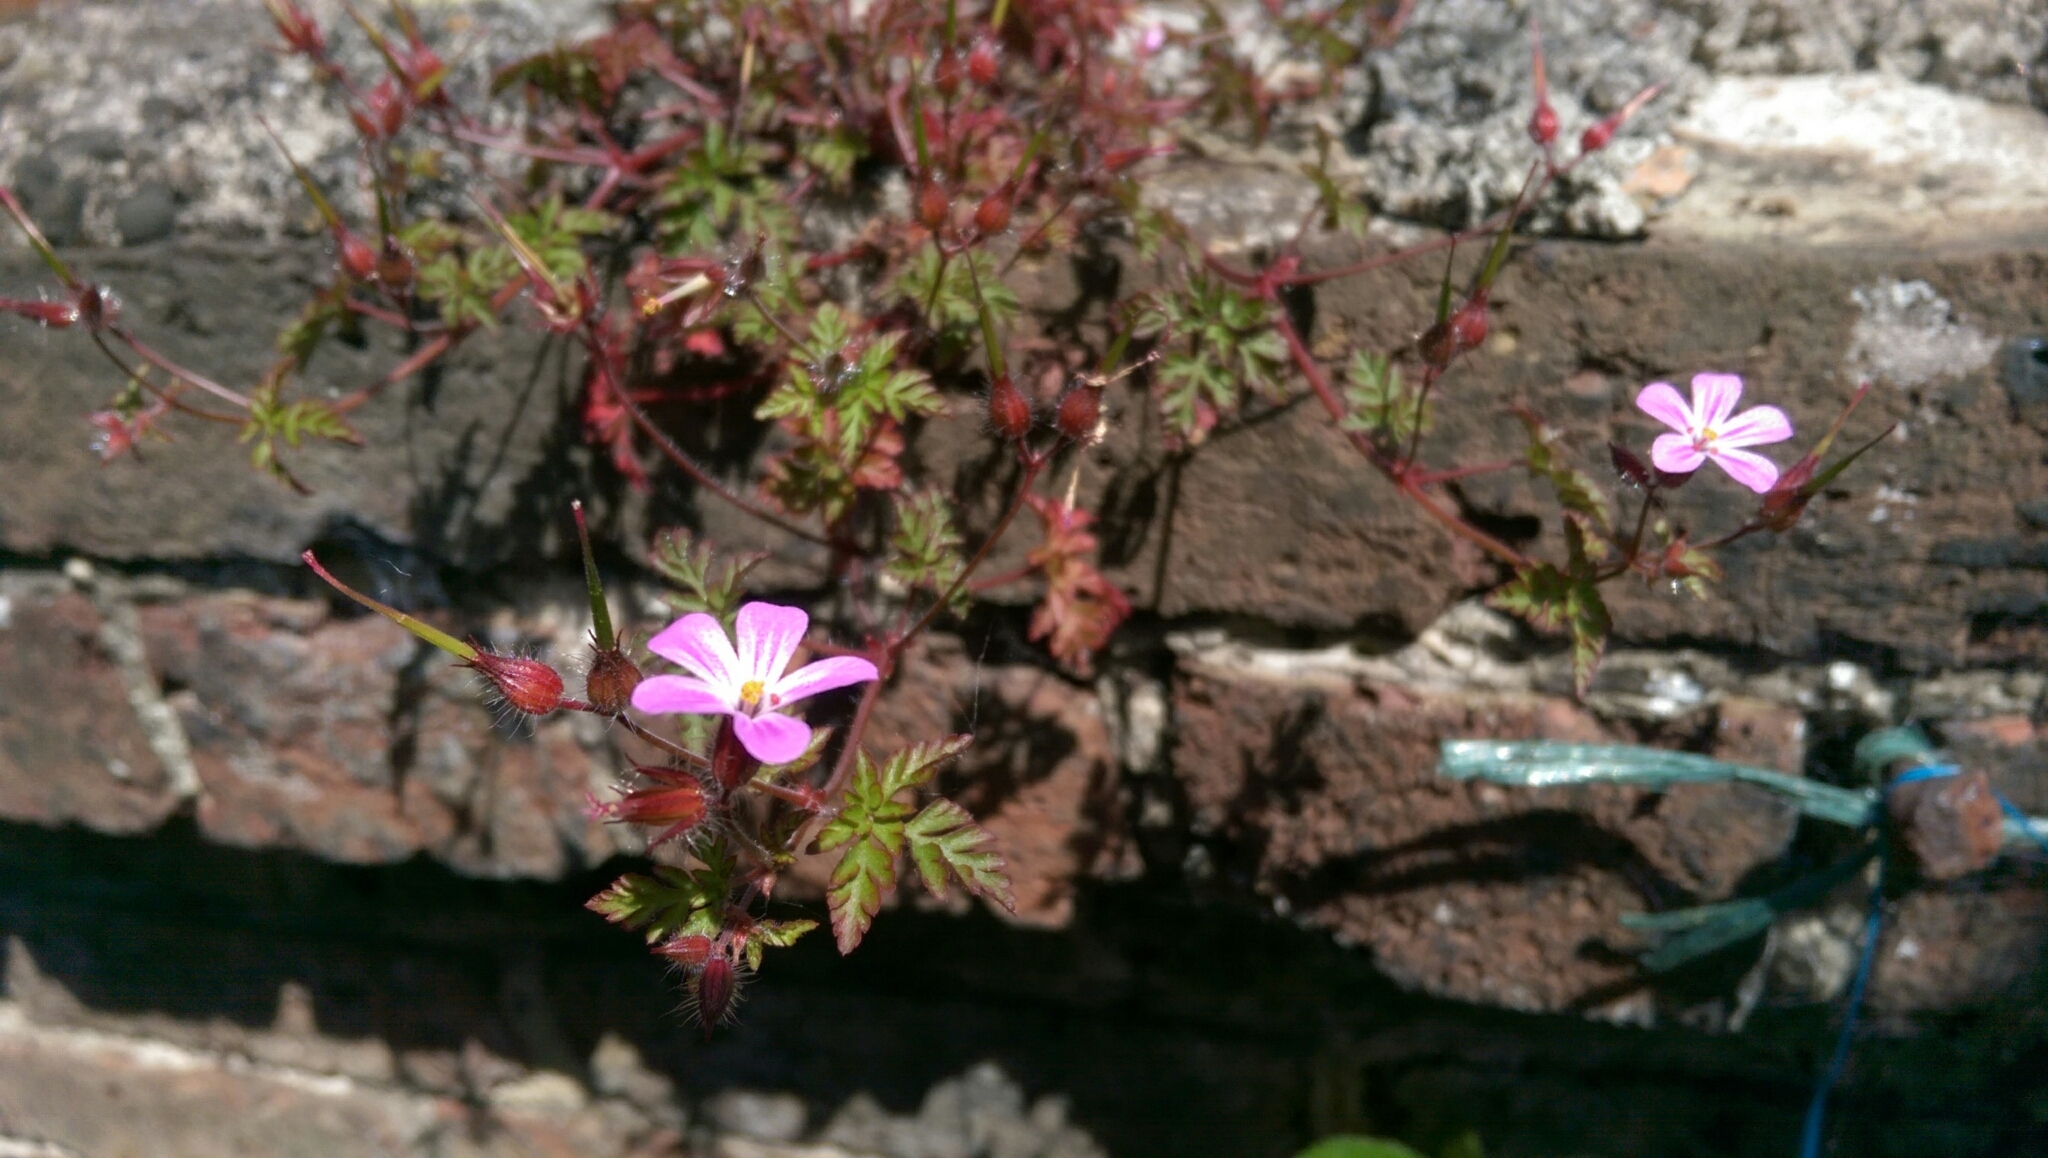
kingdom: Plantae
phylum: Tracheophyta
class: Magnoliopsida
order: Geraniales
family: Geraniaceae
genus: Geranium
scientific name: Geranium robertianum
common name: Herb-robert
